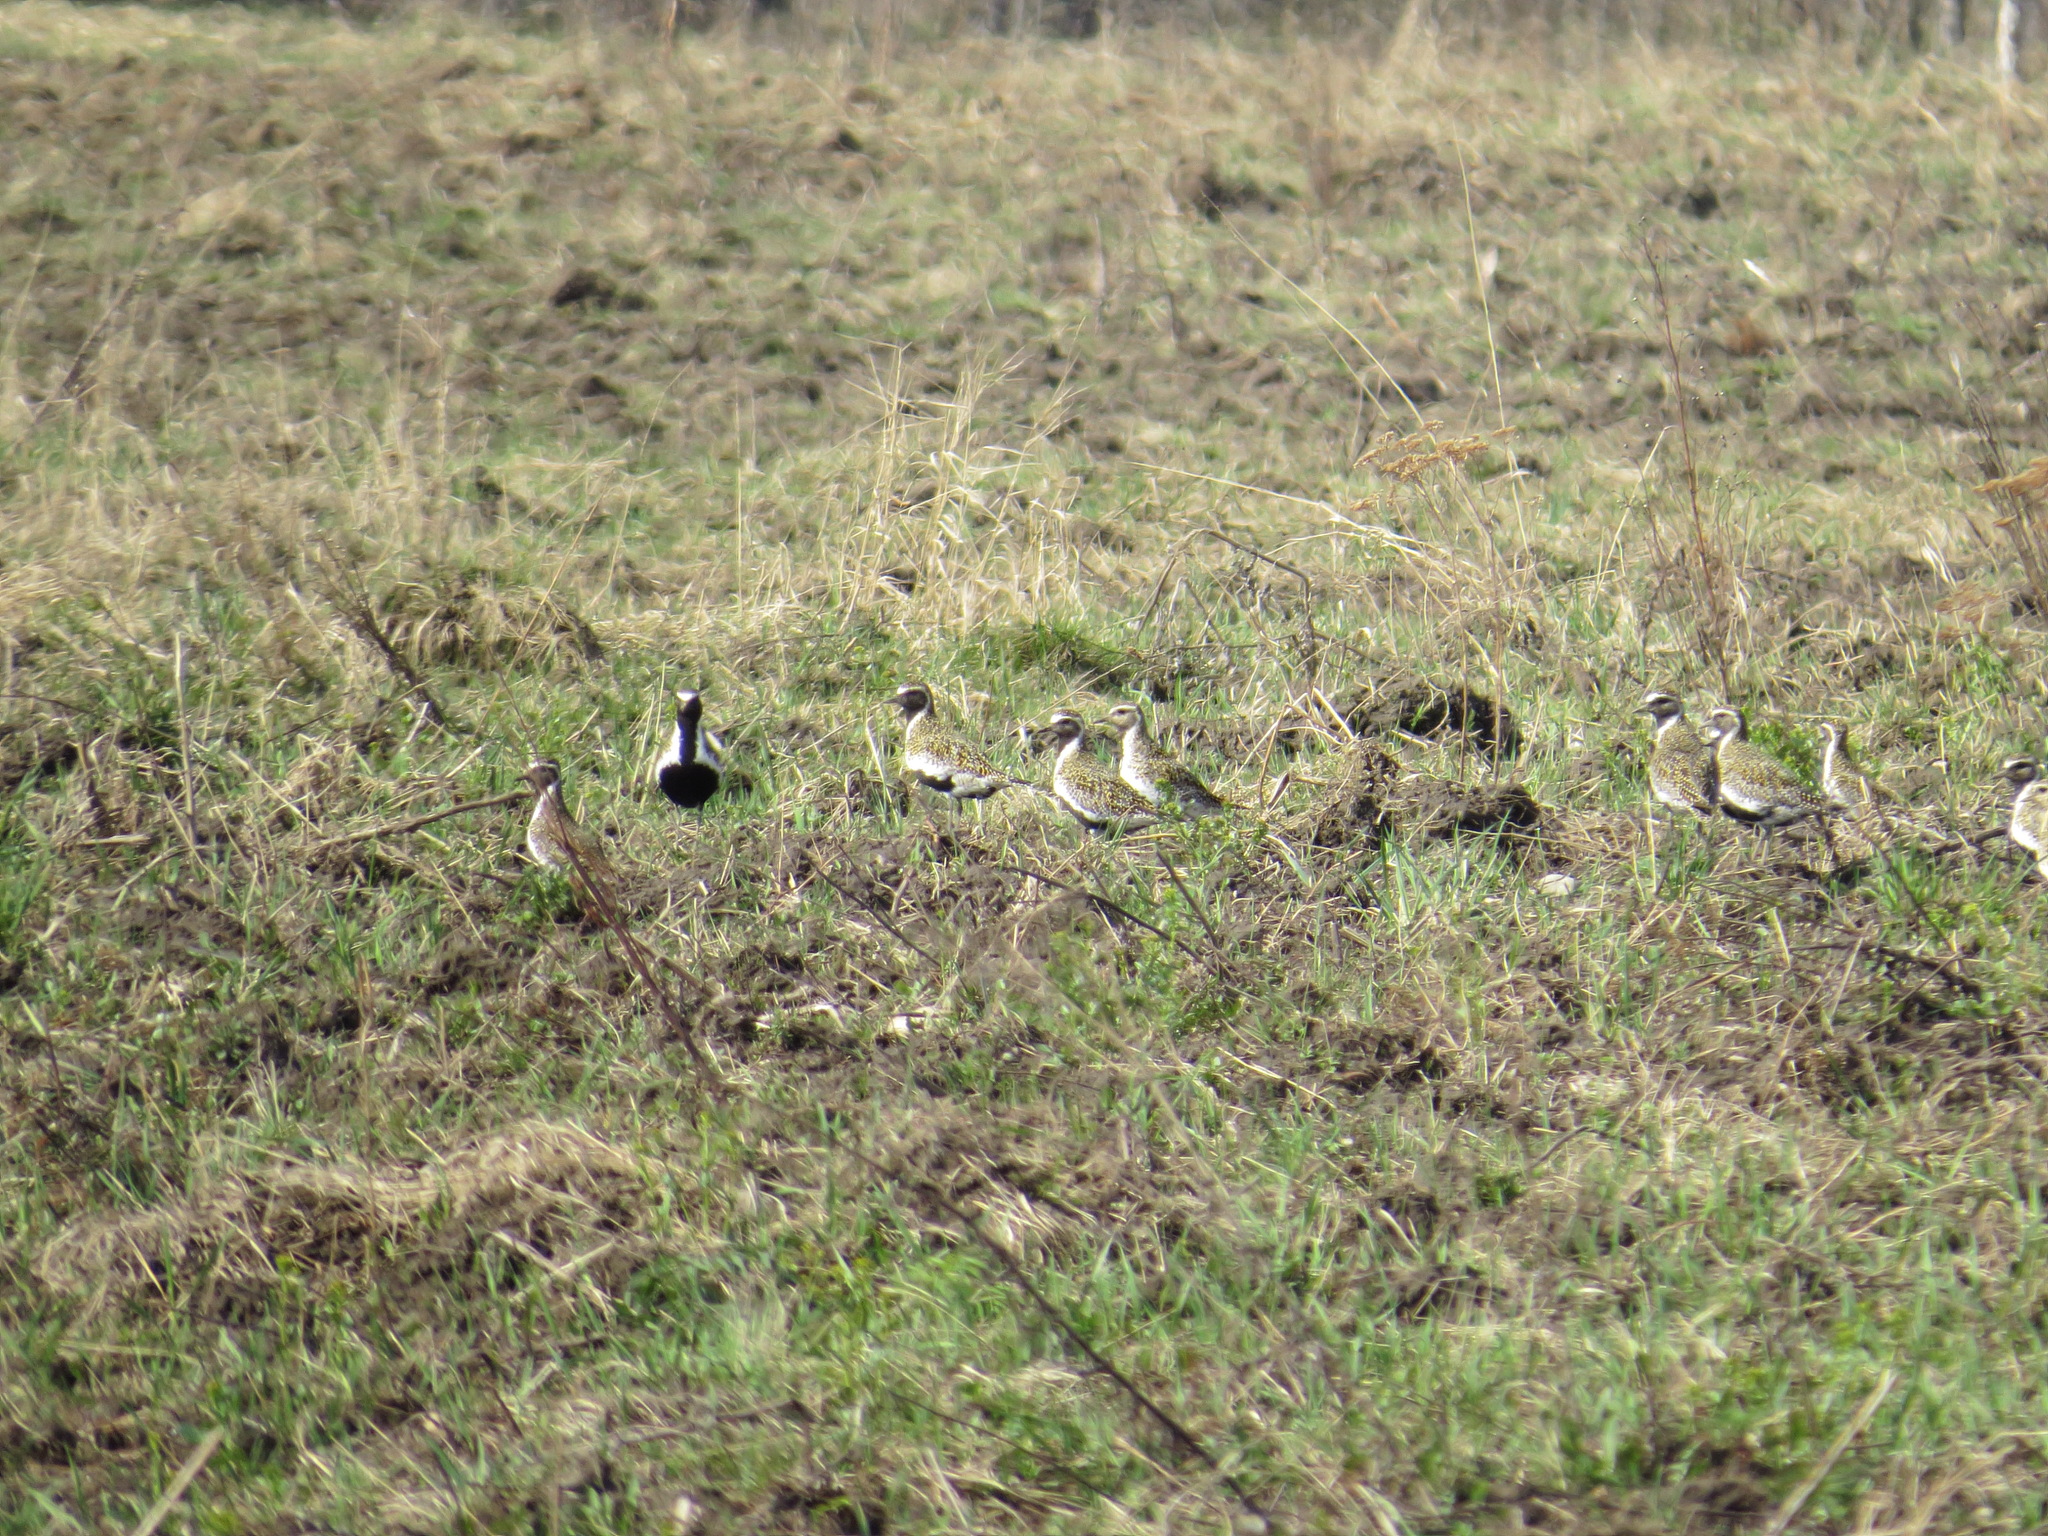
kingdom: Animalia
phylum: Chordata
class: Aves
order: Charadriiformes
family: Charadriidae
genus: Pluvialis
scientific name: Pluvialis apricaria
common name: European golden plover
